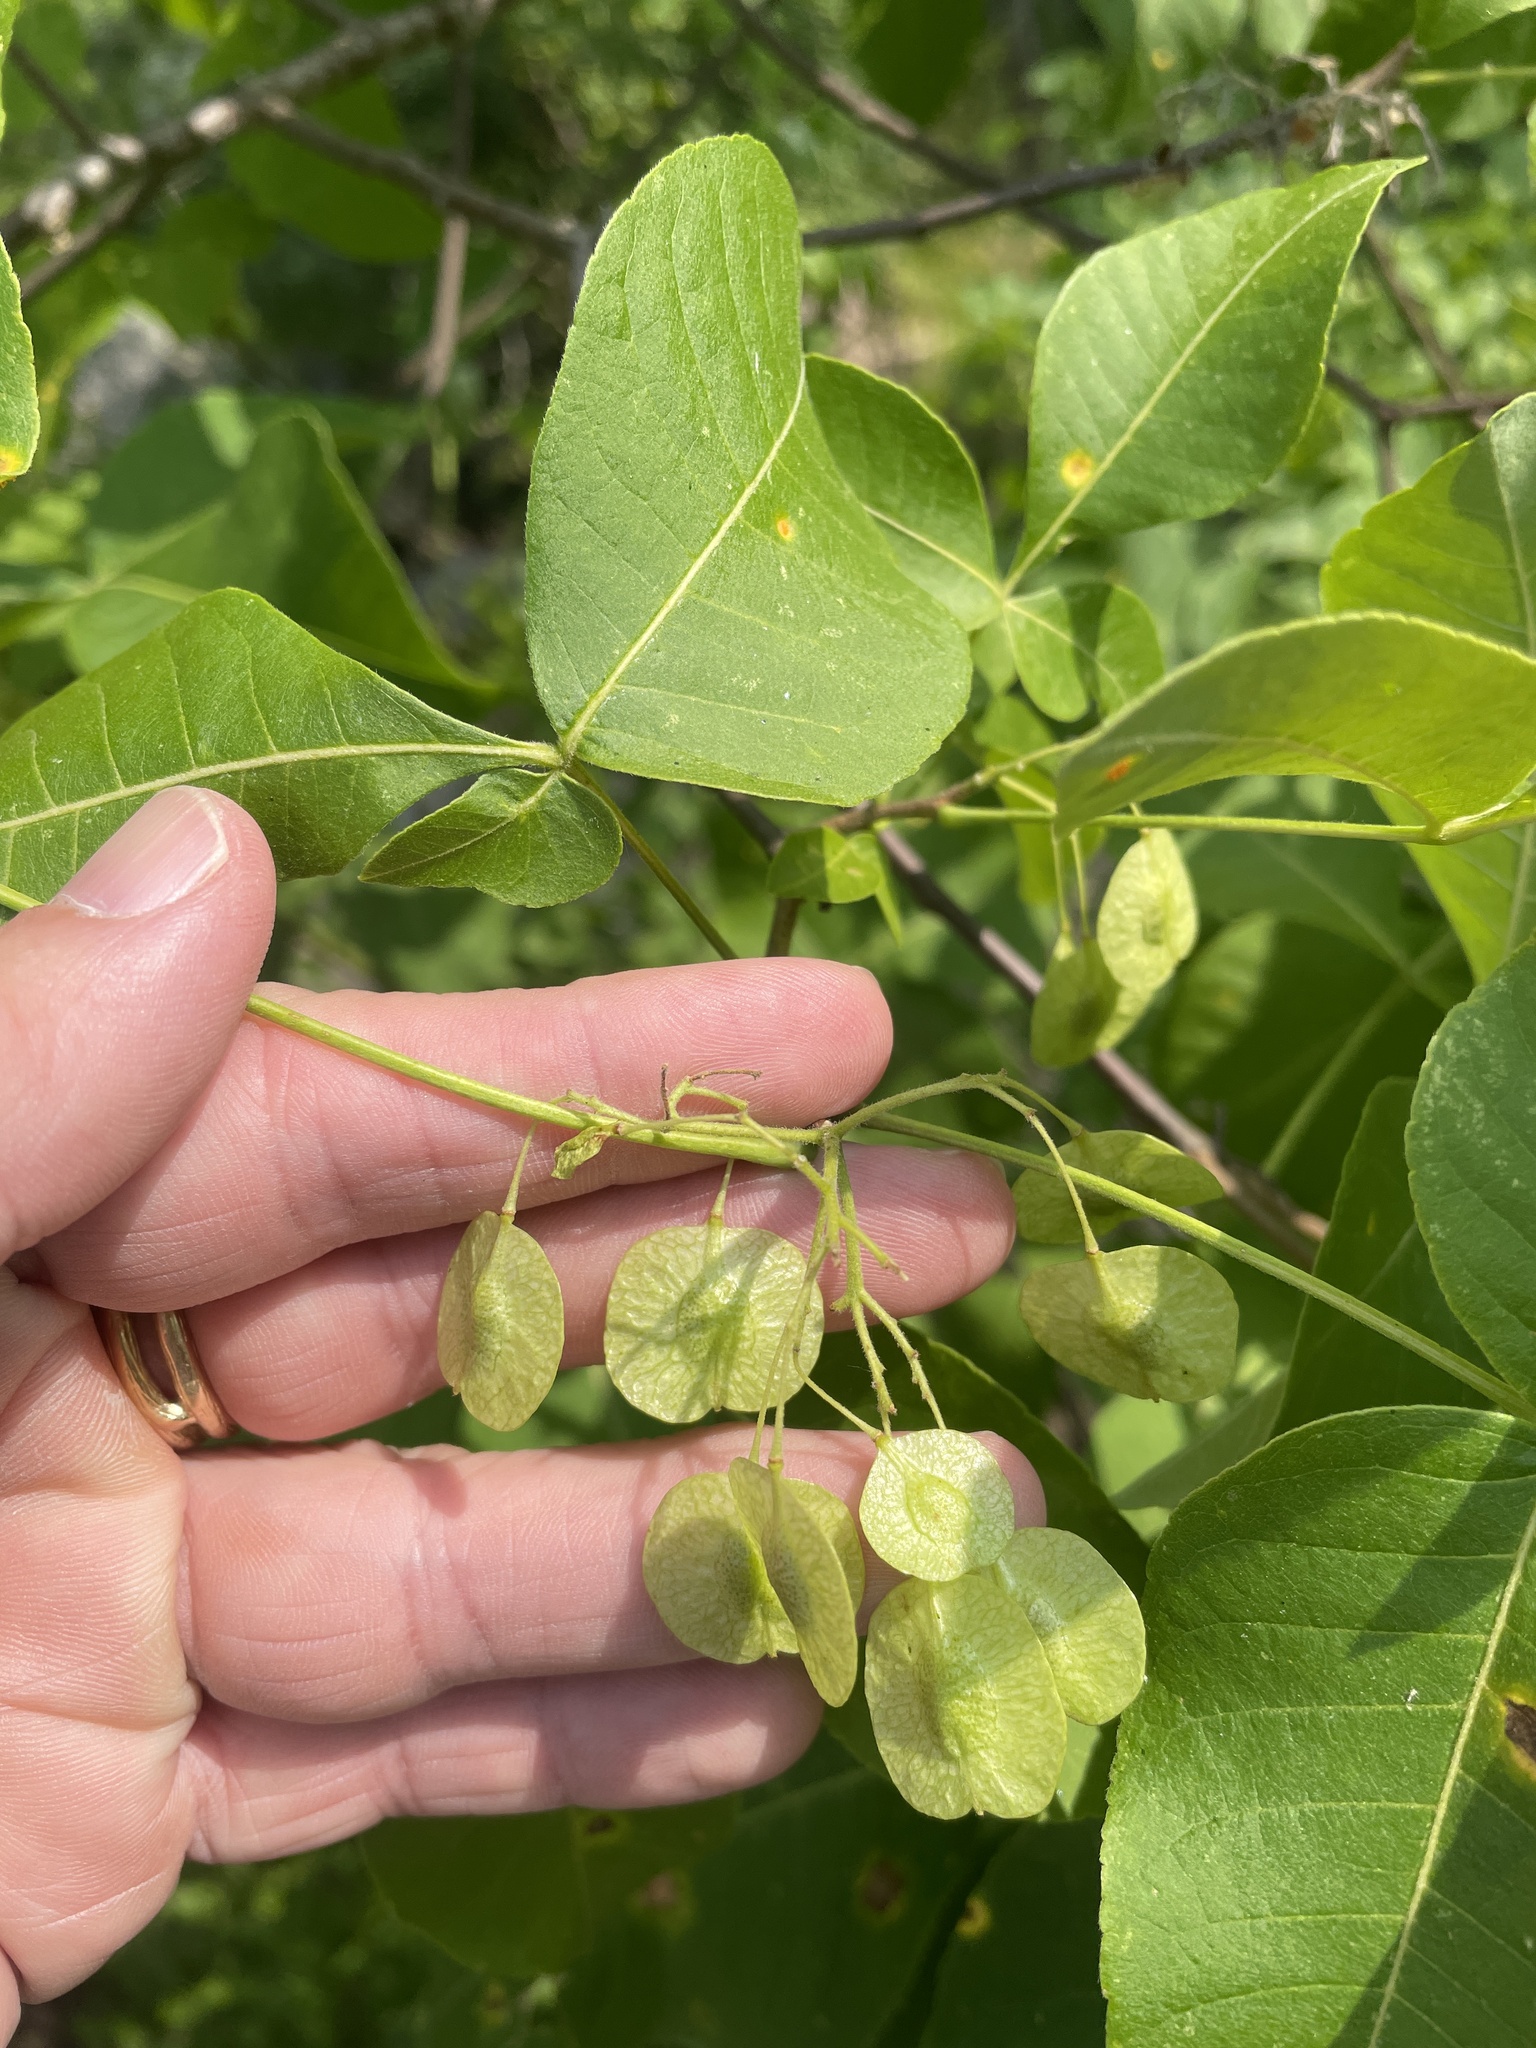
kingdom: Plantae
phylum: Tracheophyta
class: Magnoliopsida
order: Sapindales
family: Rutaceae
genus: Ptelea
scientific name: Ptelea trifoliata
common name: Common hop-tree
